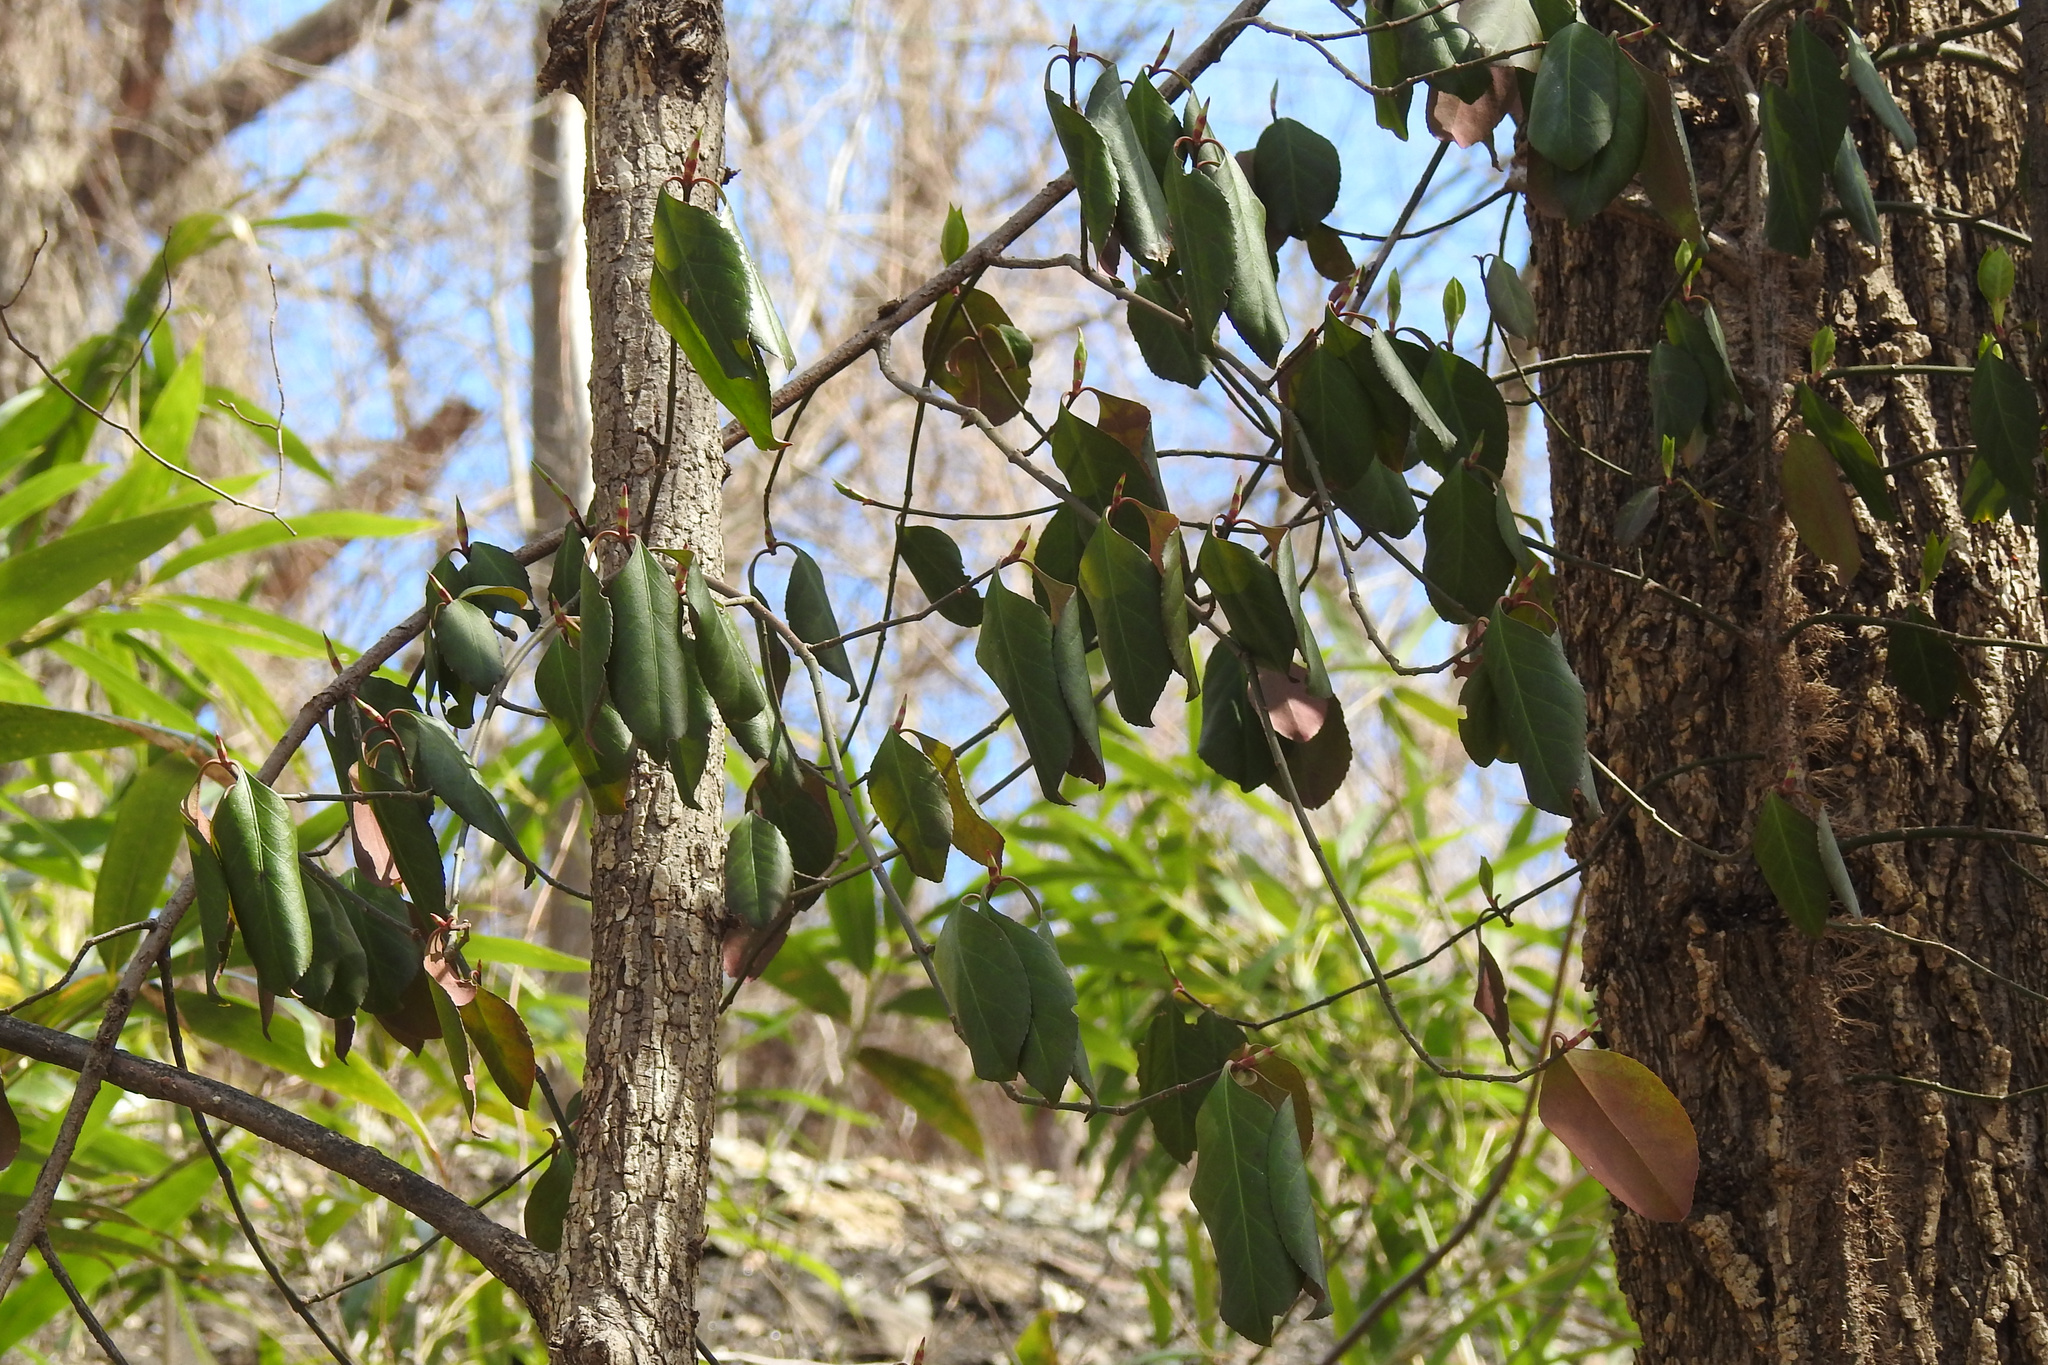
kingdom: Plantae
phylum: Tracheophyta
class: Magnoliopsida
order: Celastrales
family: Celastraceae
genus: Euonymus
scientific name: Euonymus fortunei
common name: Climbing euonymus
